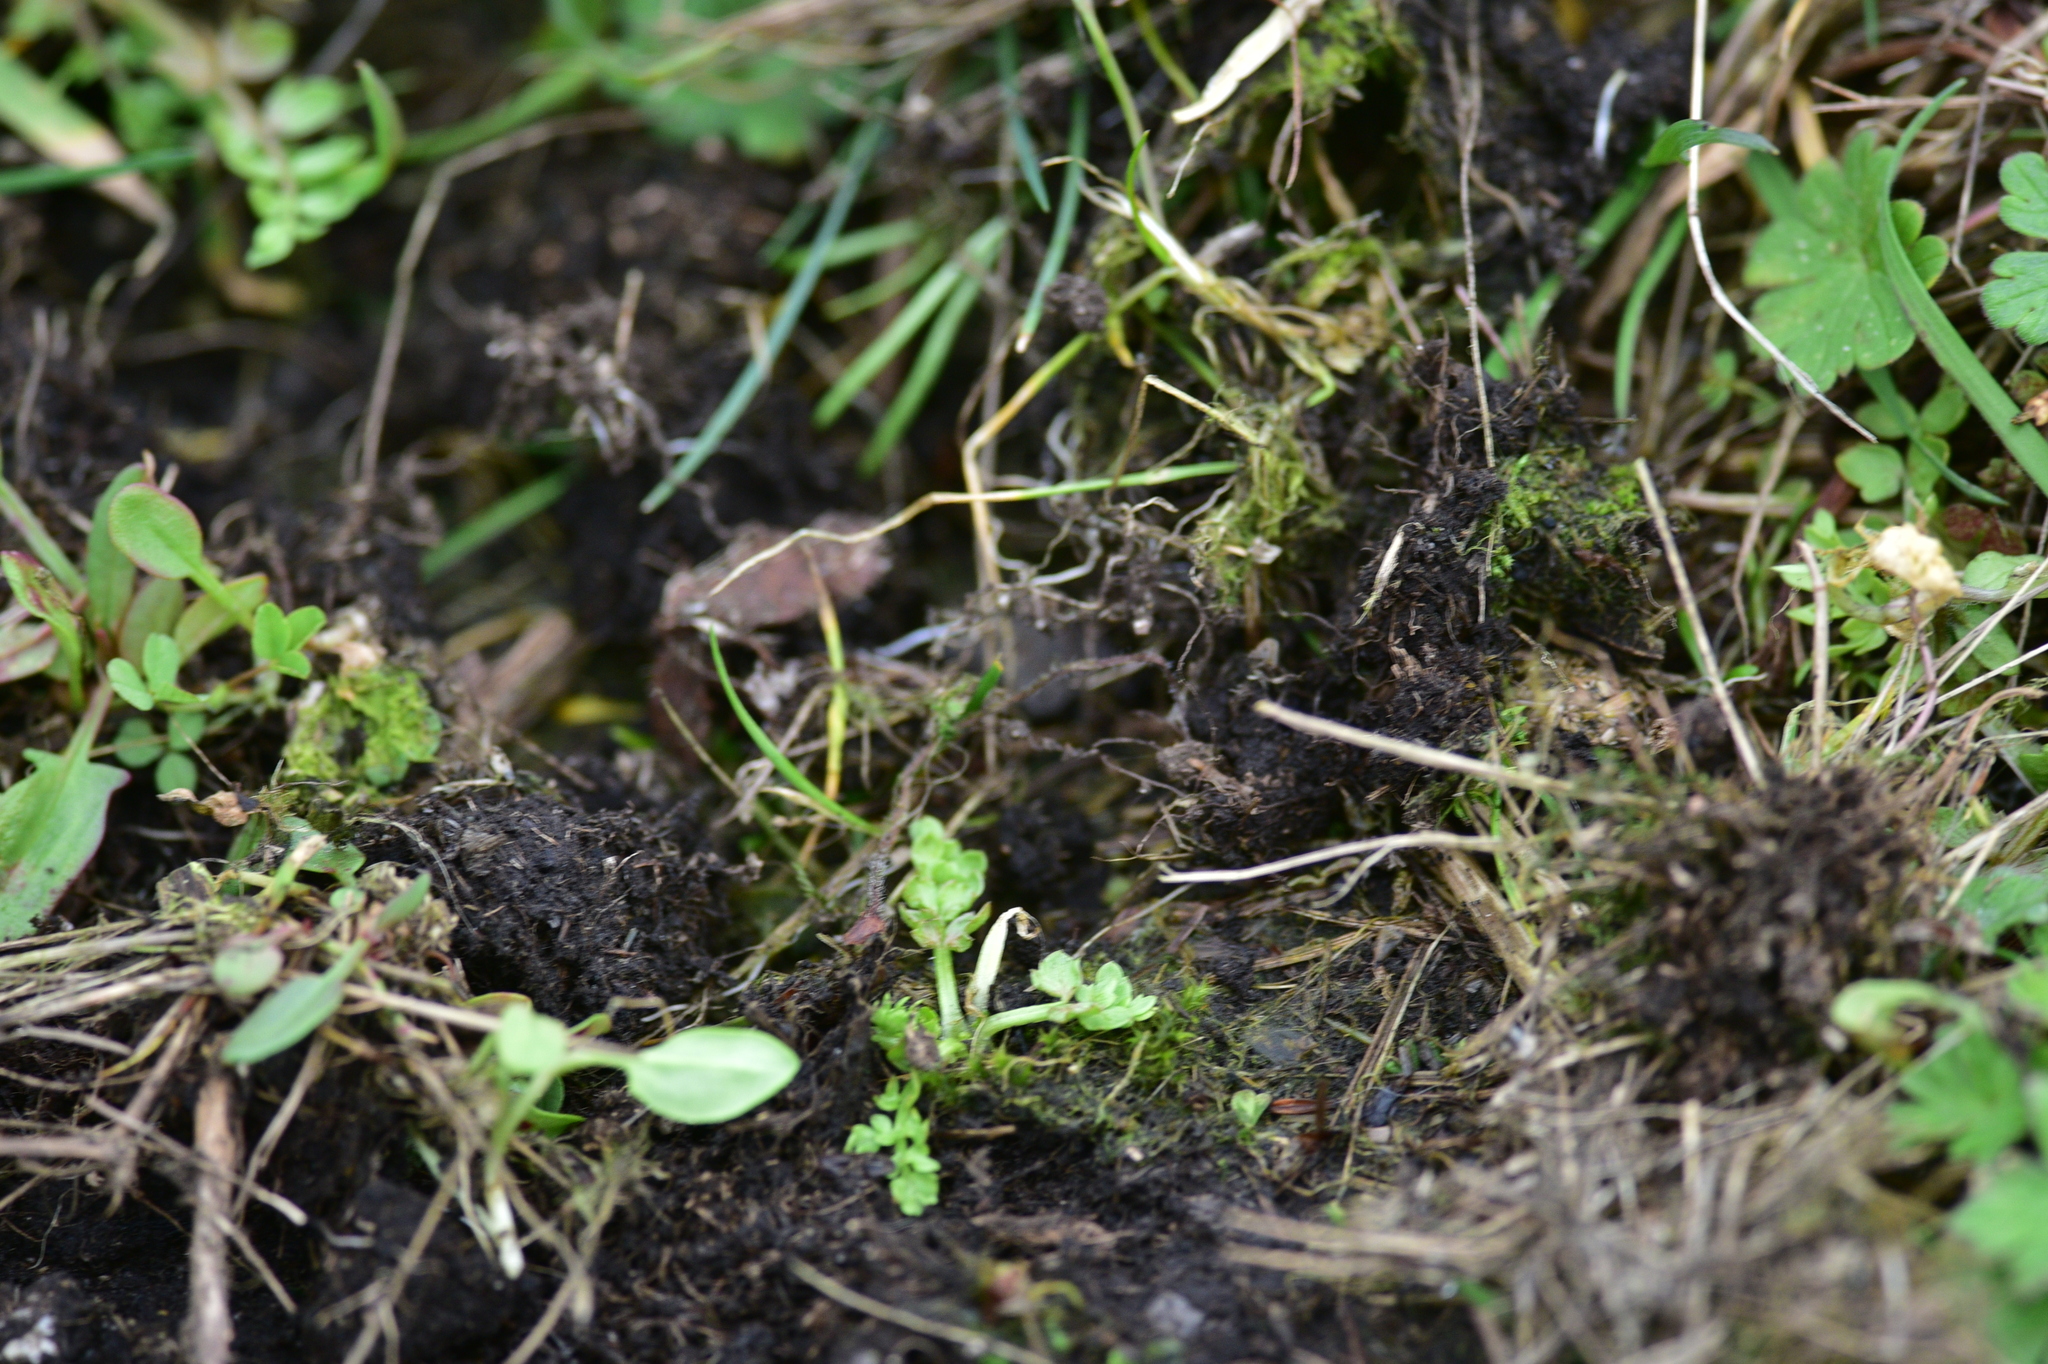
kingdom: Plantae
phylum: Tracheophyta
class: Magnoliopsida
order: Brassicales
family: Limnanthaceae
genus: Limnanthes
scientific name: Limnanthes macounii
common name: Macoun's meadowfoam
